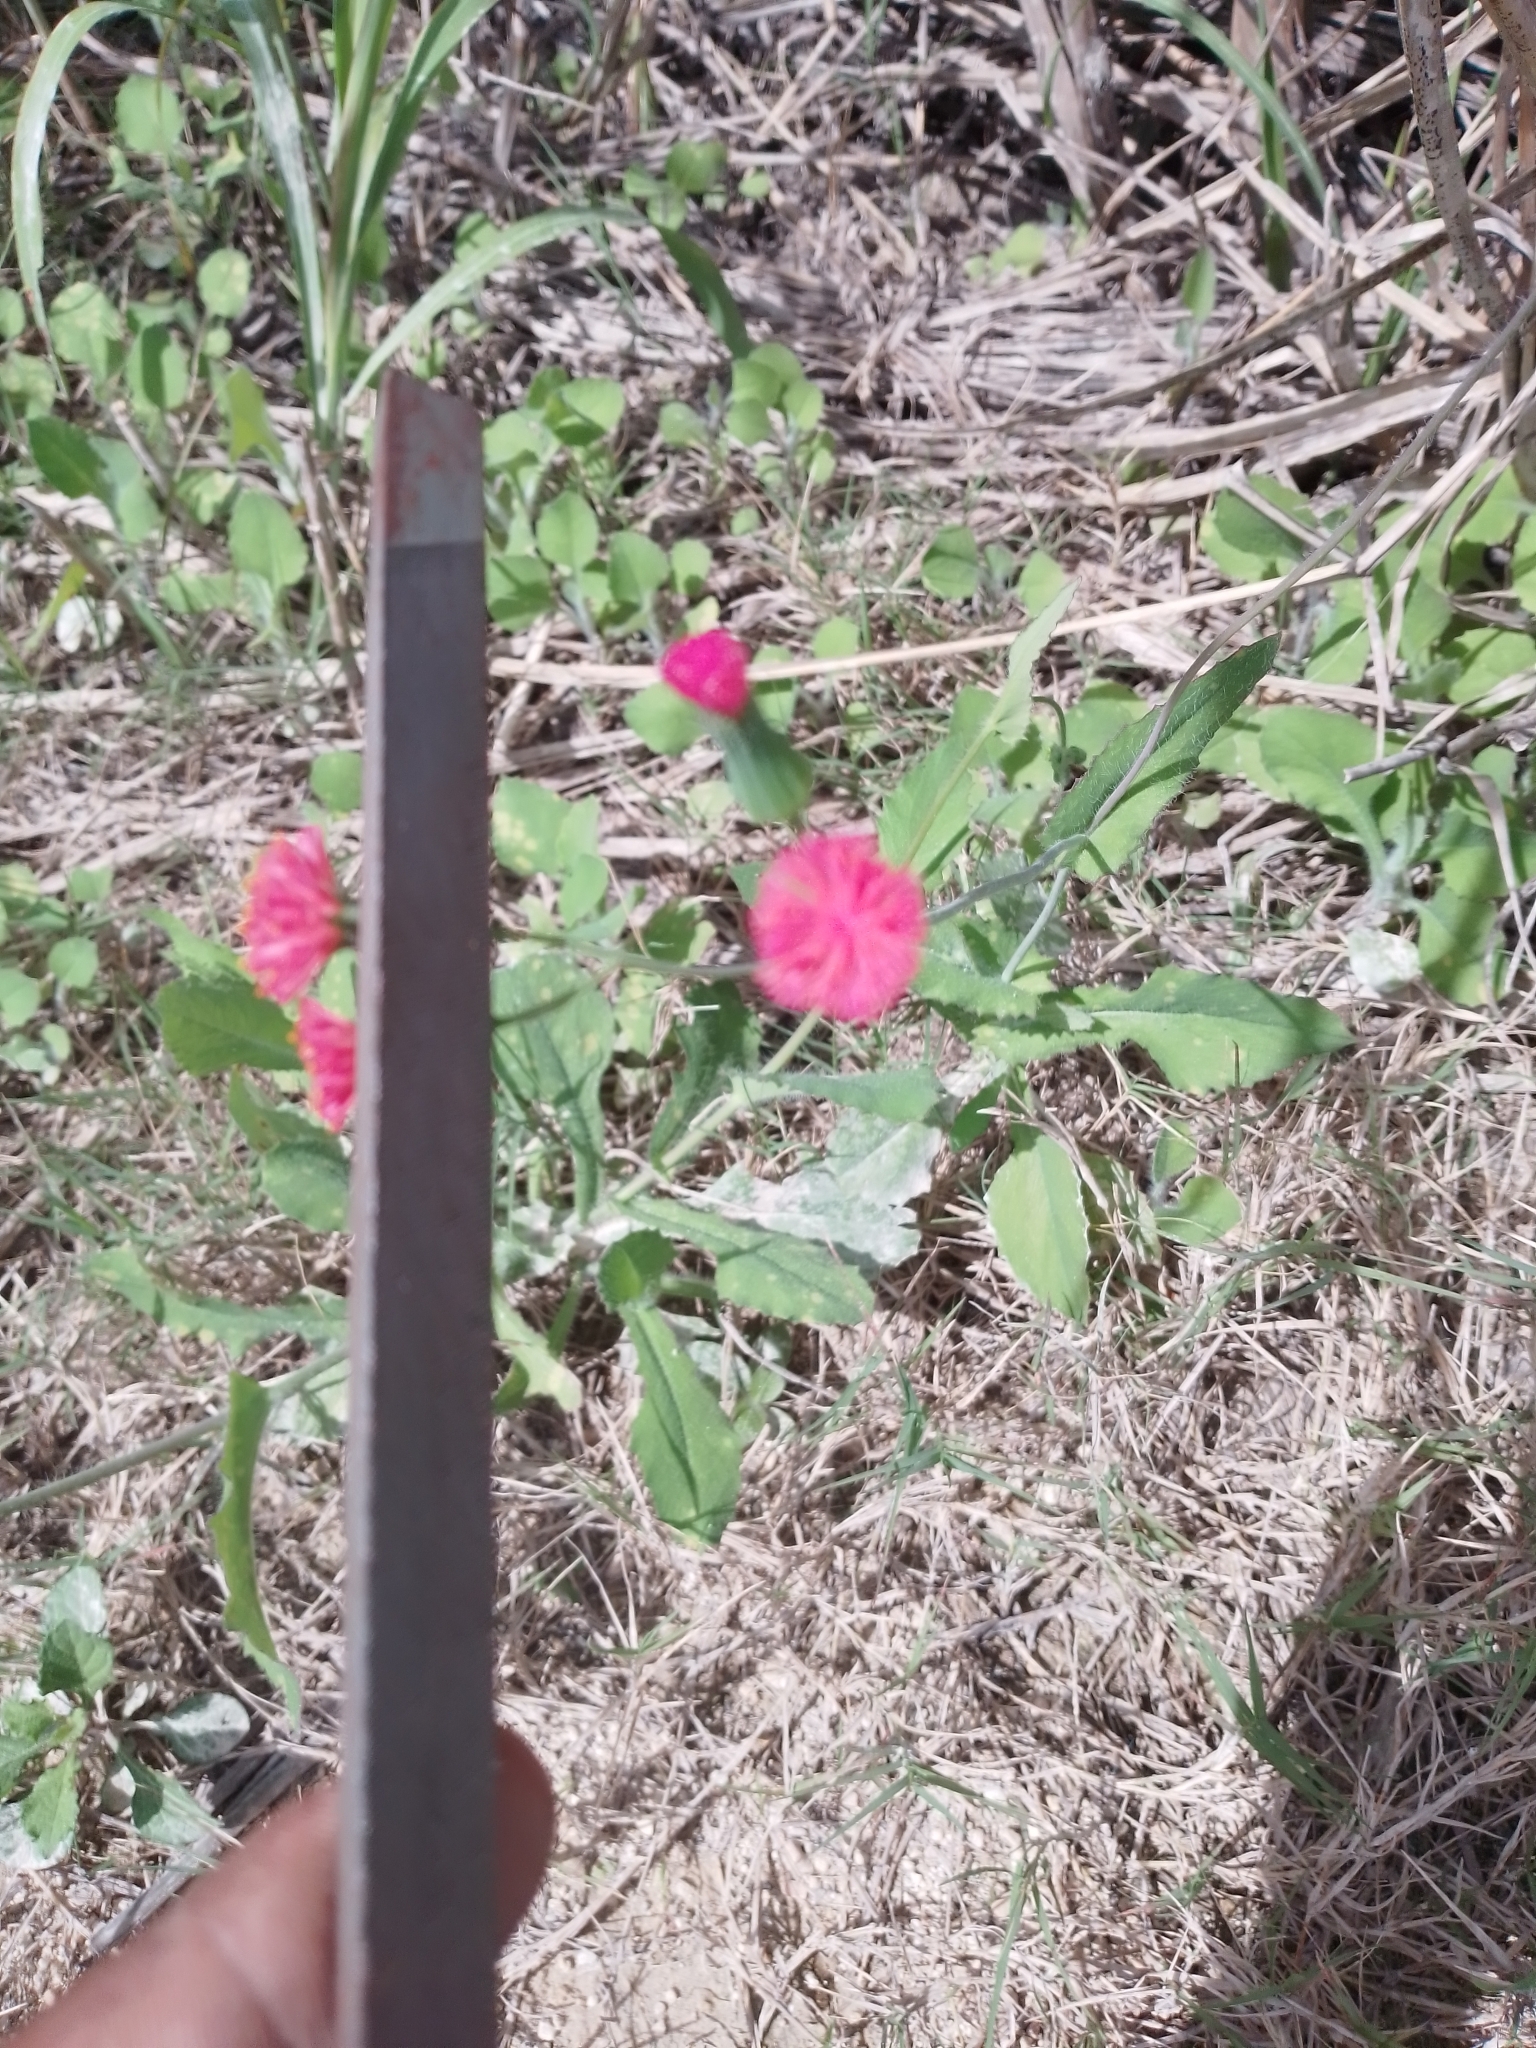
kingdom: Plantae
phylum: Tracheophyta
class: Magnoliopsida
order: Asterales
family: Asteraceae
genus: Emilia
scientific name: Emilia fosbergii
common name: Florida tasselflower
